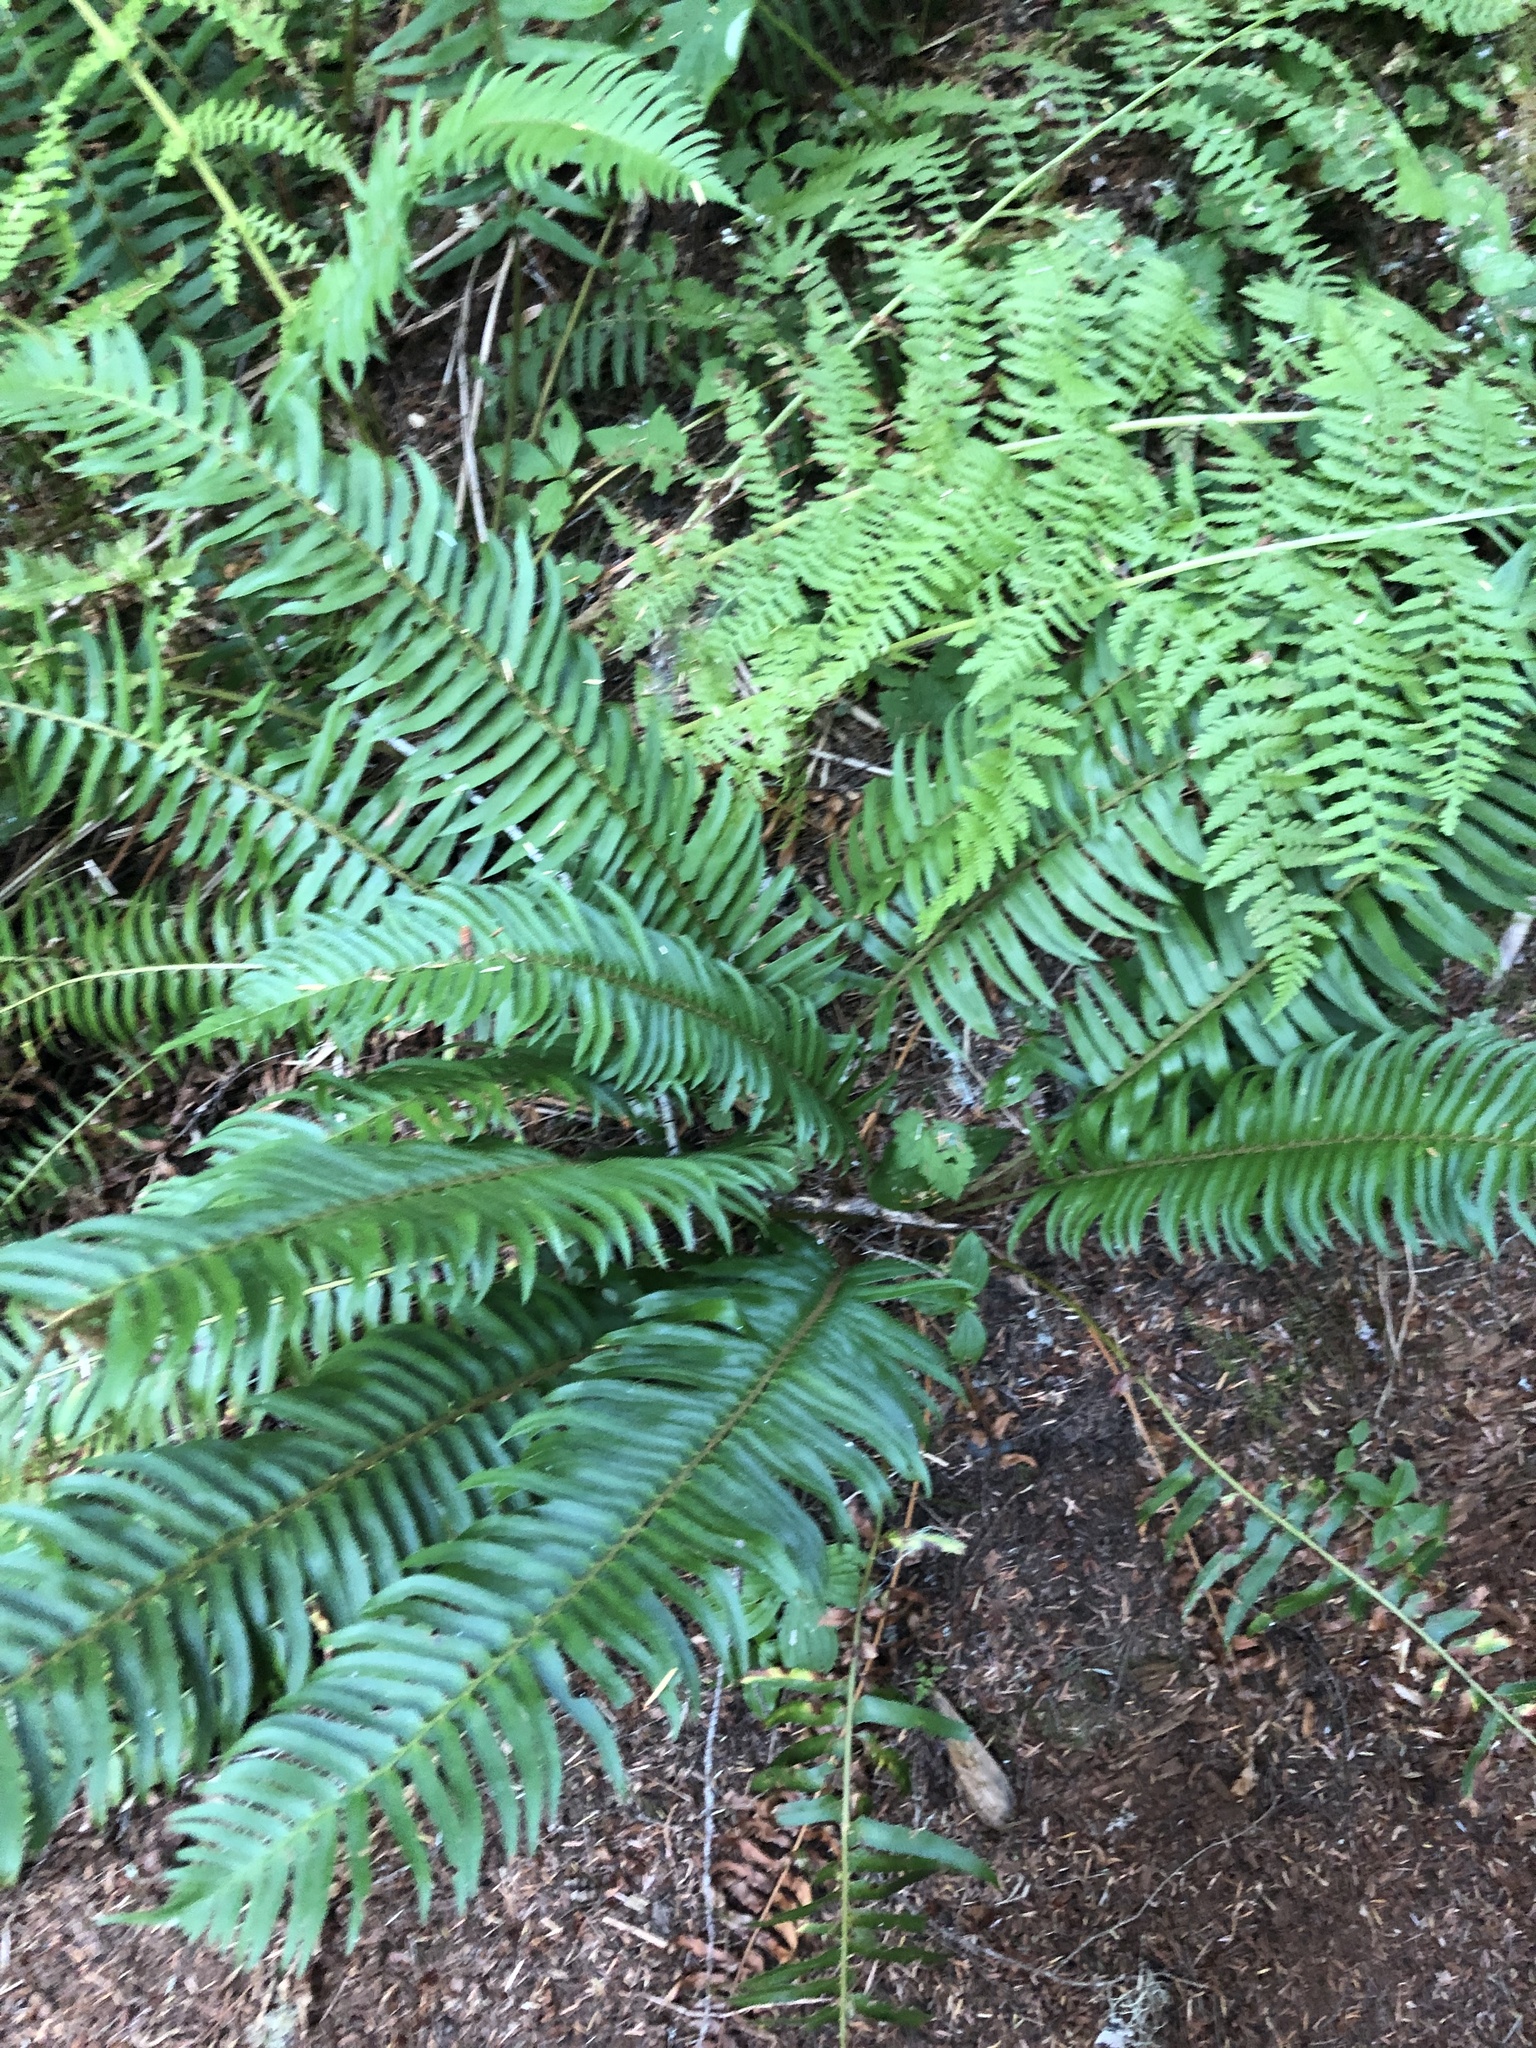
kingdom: Plantae
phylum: Tracheophyta
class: Polypodiopsida
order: Polypodiales
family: Dryopteridaceae
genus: Polystichum
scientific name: Polystichum munitum
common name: Western sword-fern
